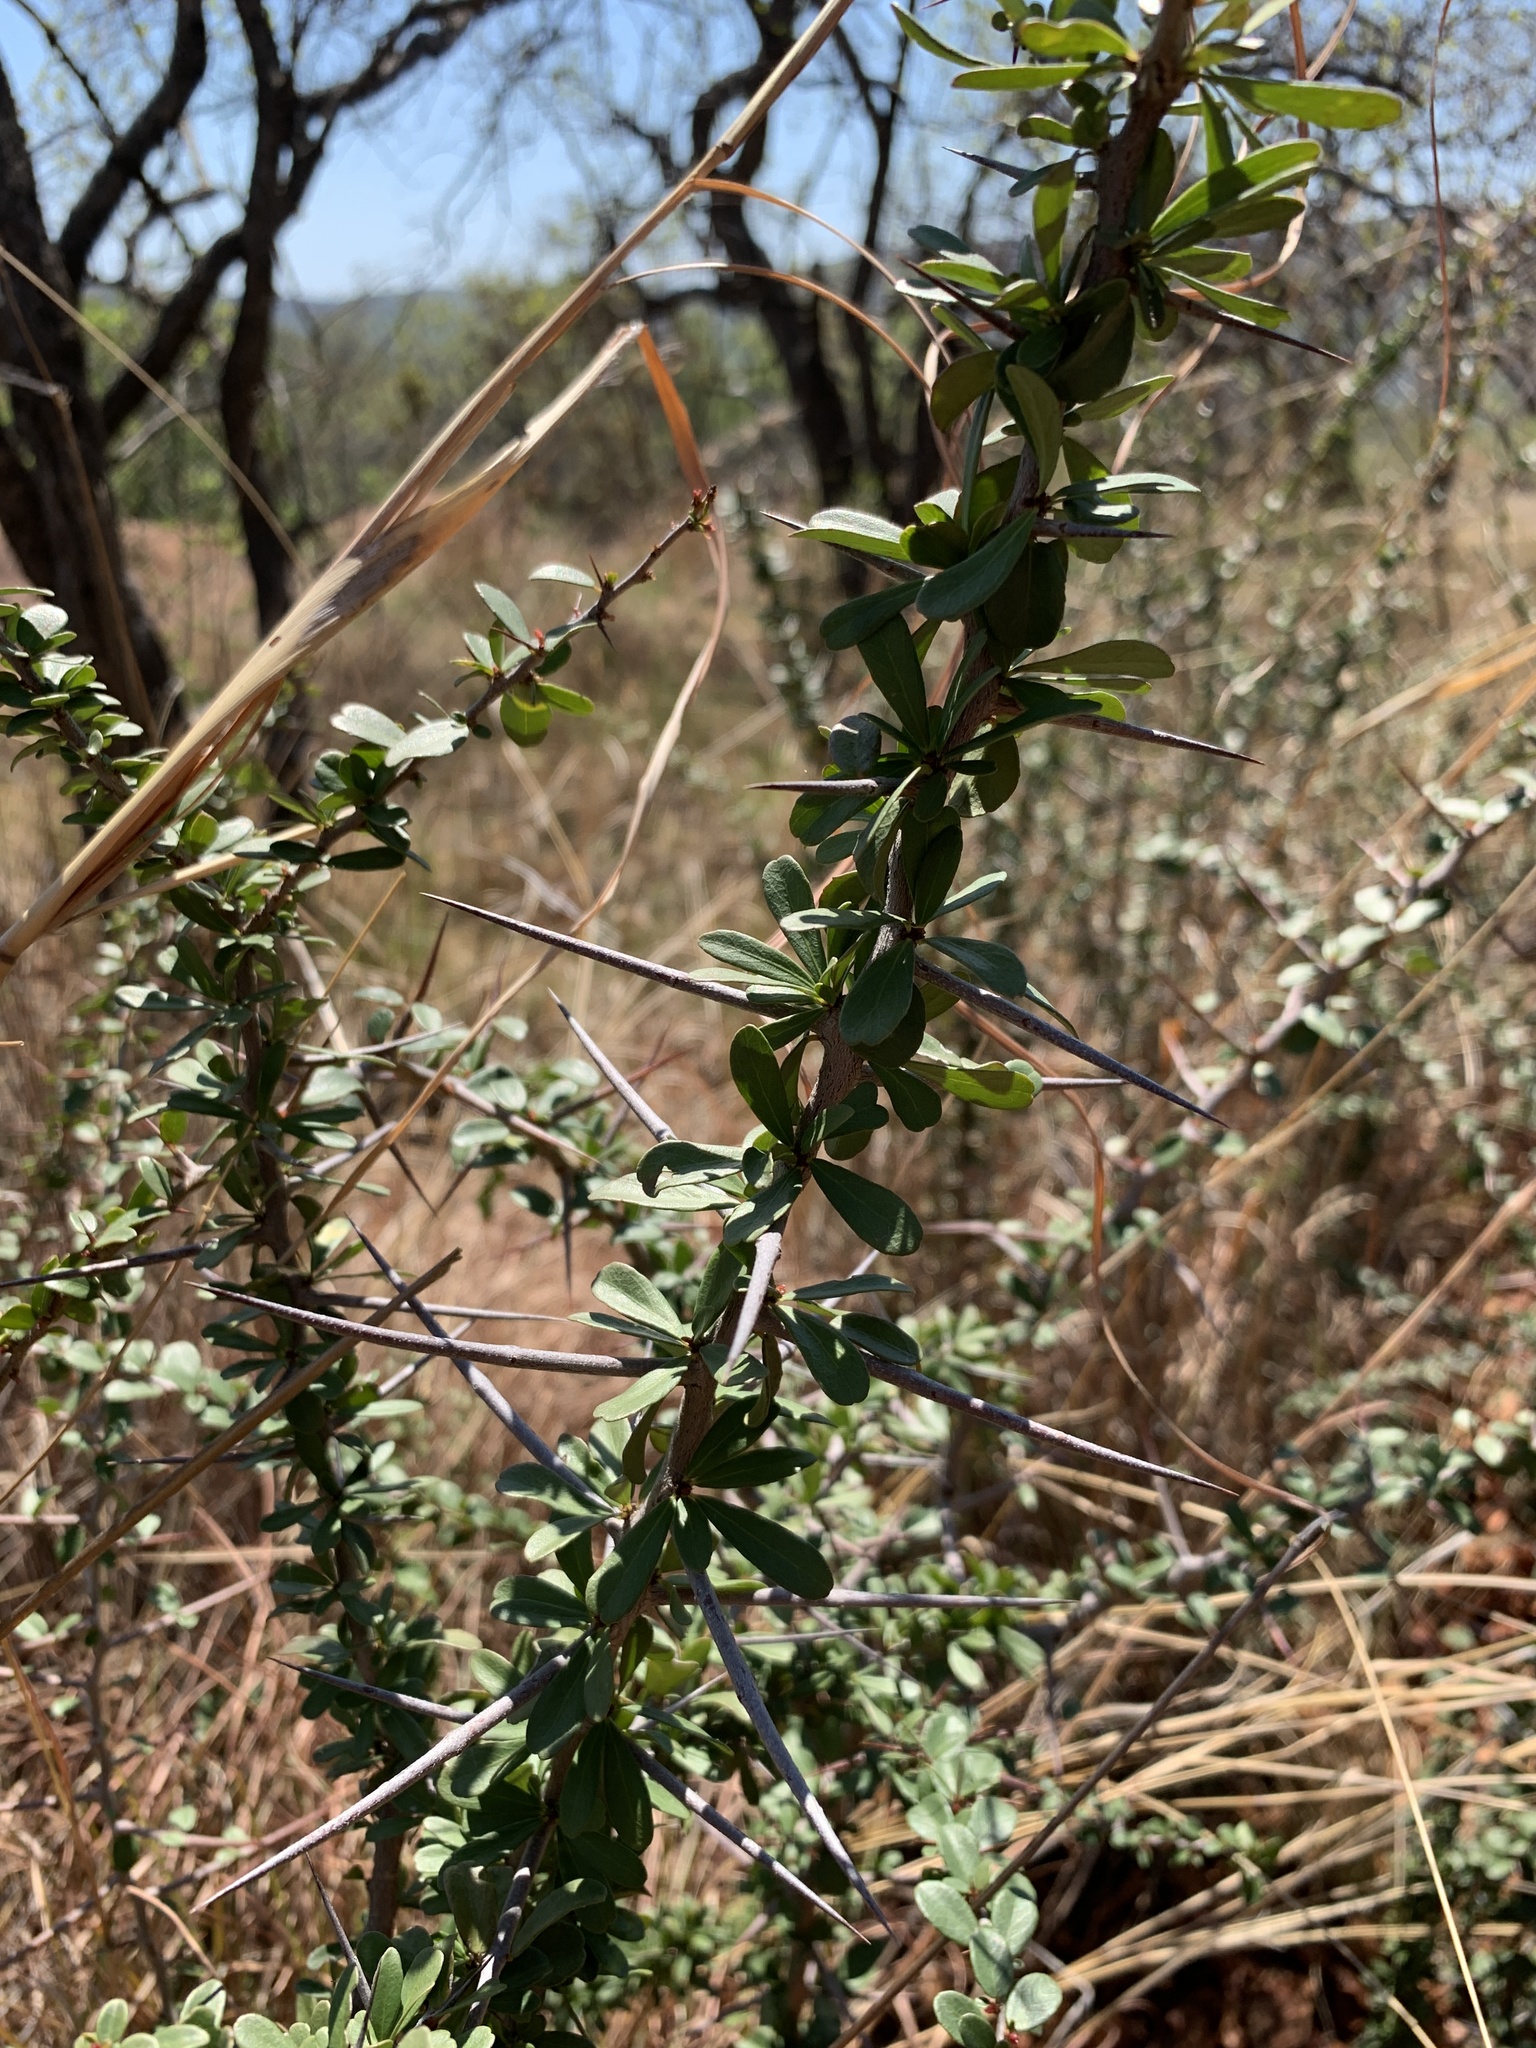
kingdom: Plantae
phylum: Tracheophyta
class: Magnoliopsida
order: Celastrales
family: Celastraceae
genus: Gymnosporia
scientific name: Gymnosporia polyacantha
